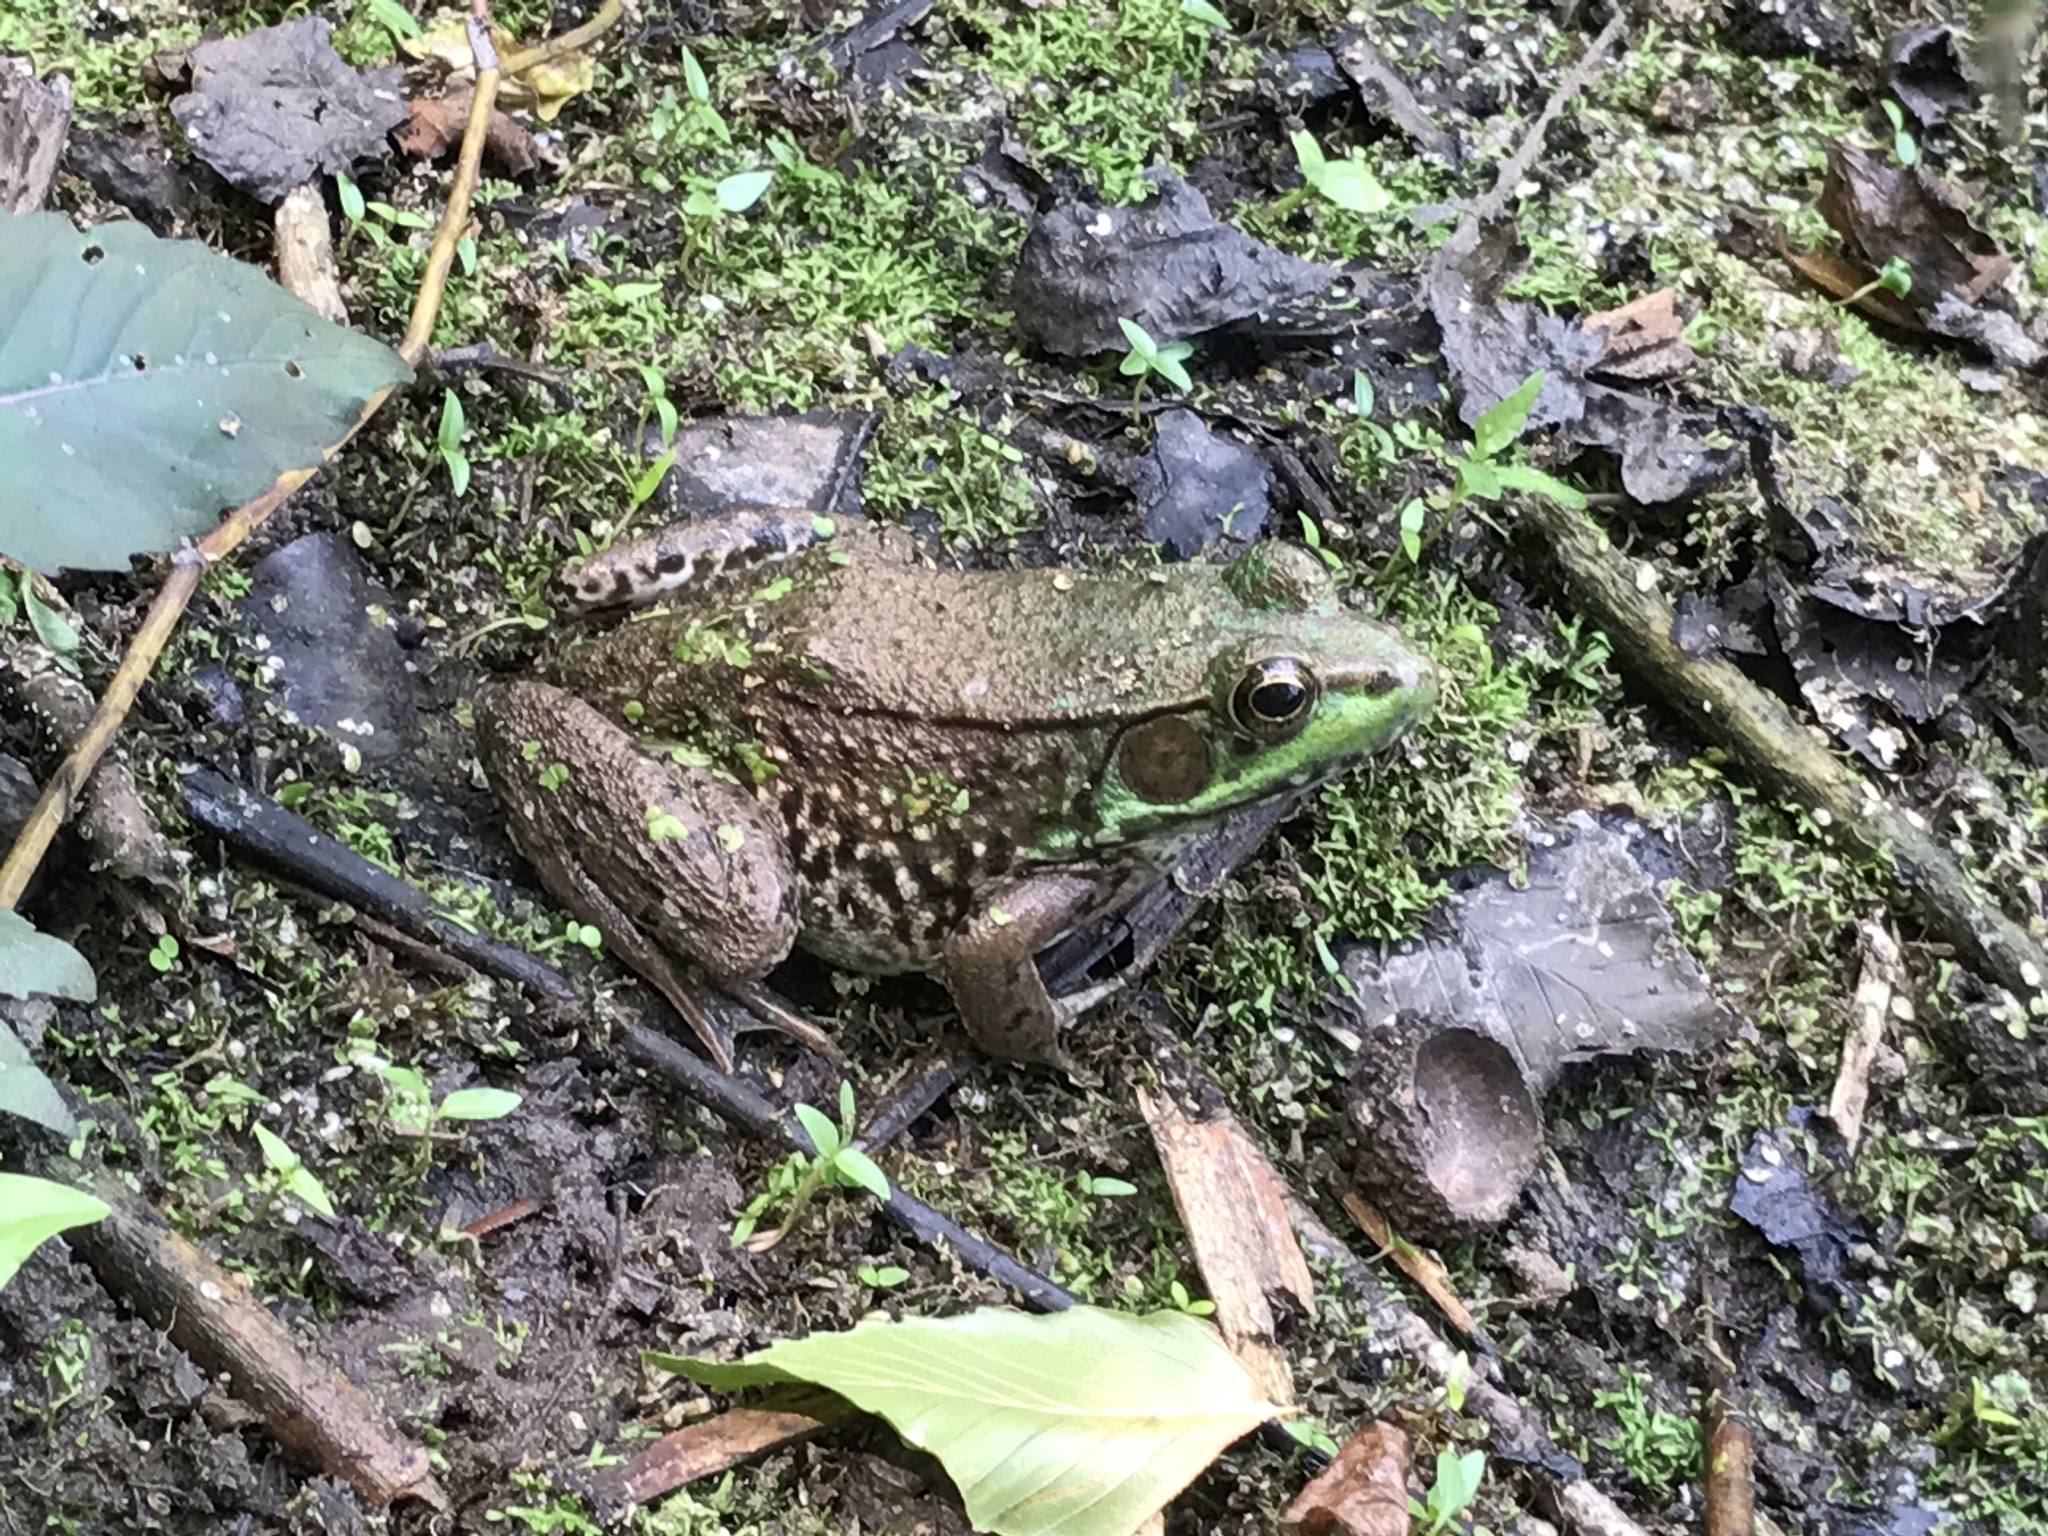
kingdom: Animalia
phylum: Chordata
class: Amphibia
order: Anura
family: Ranidae
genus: Lithobates
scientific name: Lithobates clamitans
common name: Green frog
